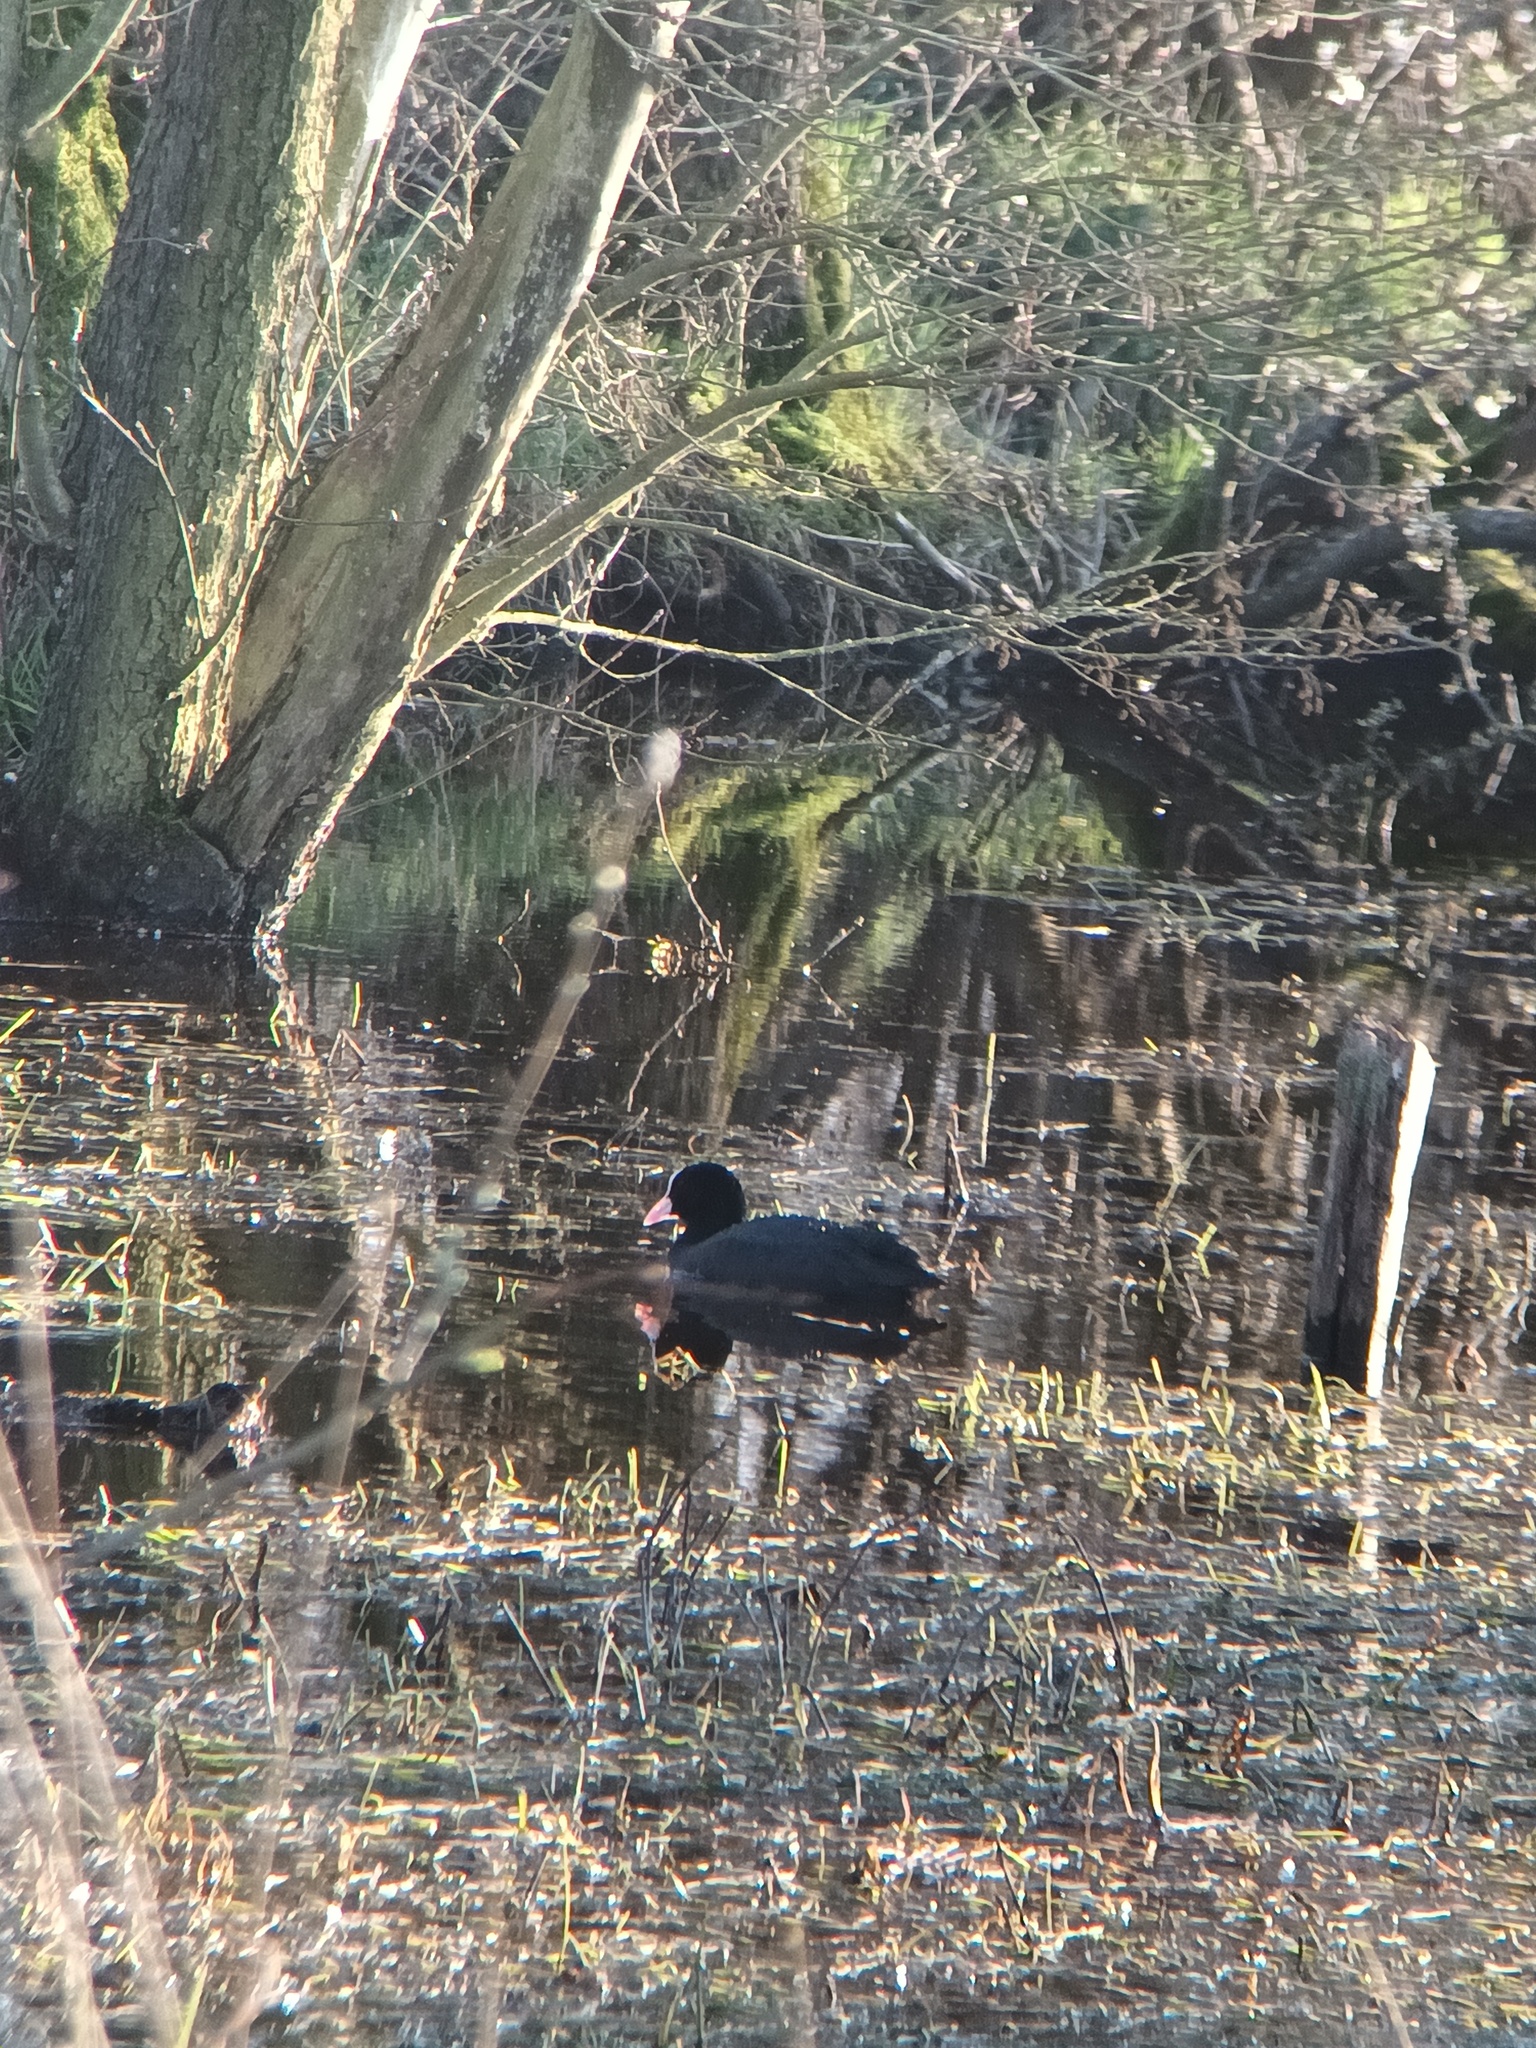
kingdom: Animalia
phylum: Chordata
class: Aves
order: Gruiformes
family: Rallidae
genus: Fulica
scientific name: Fulica atra
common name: Eurasian coot
